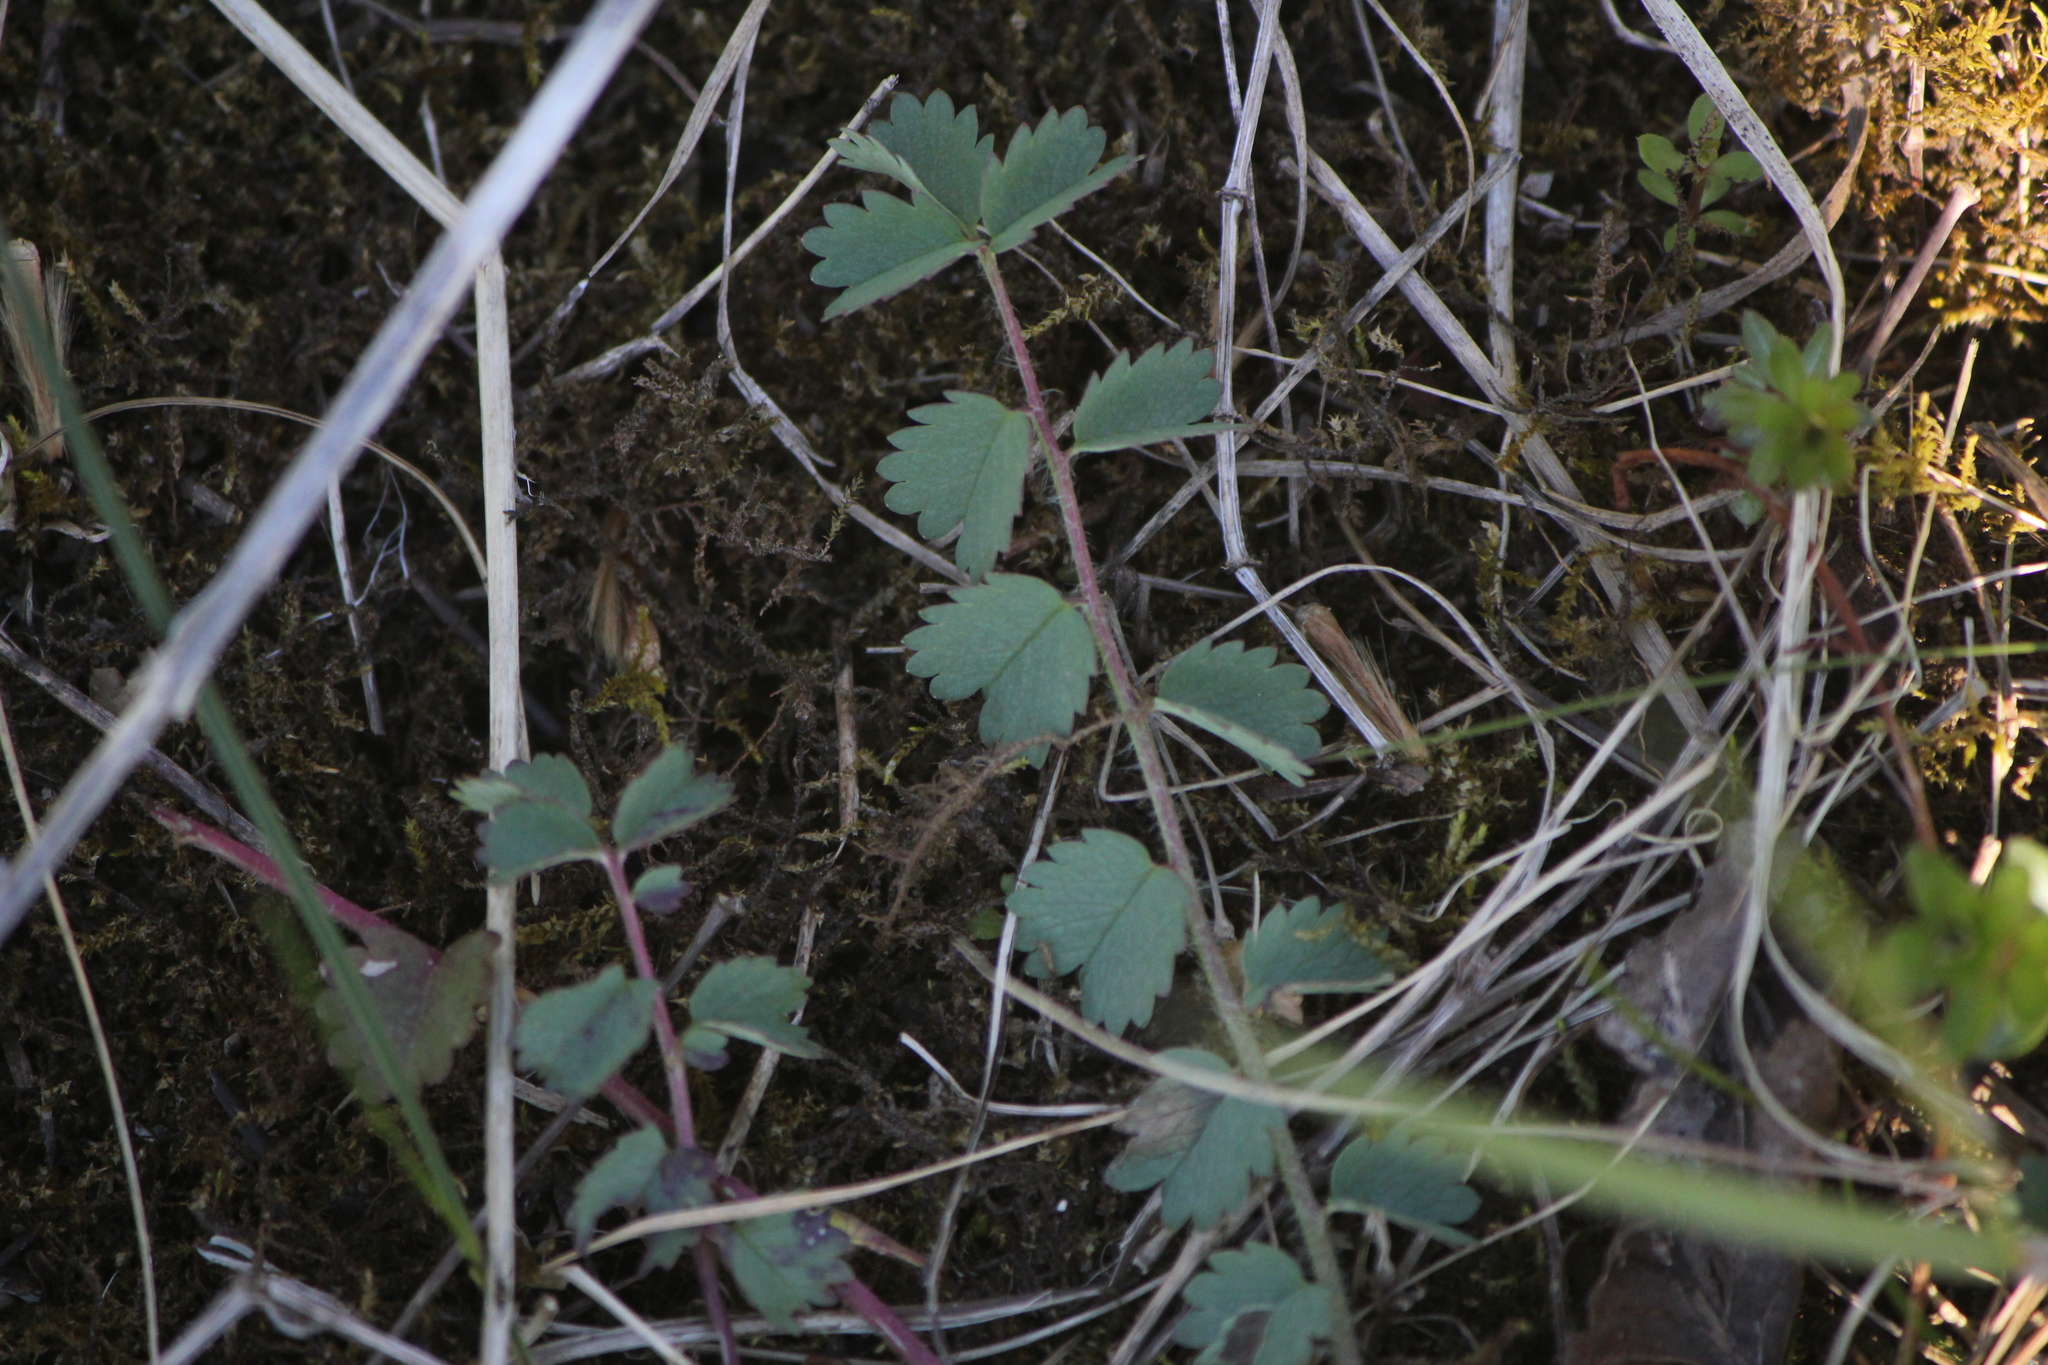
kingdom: Plantae
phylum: Tracheophyta
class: Magnoliopsida
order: Rosales
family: Rosaceae
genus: Poterium
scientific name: Poterium sanguisorba
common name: Salad burnet
